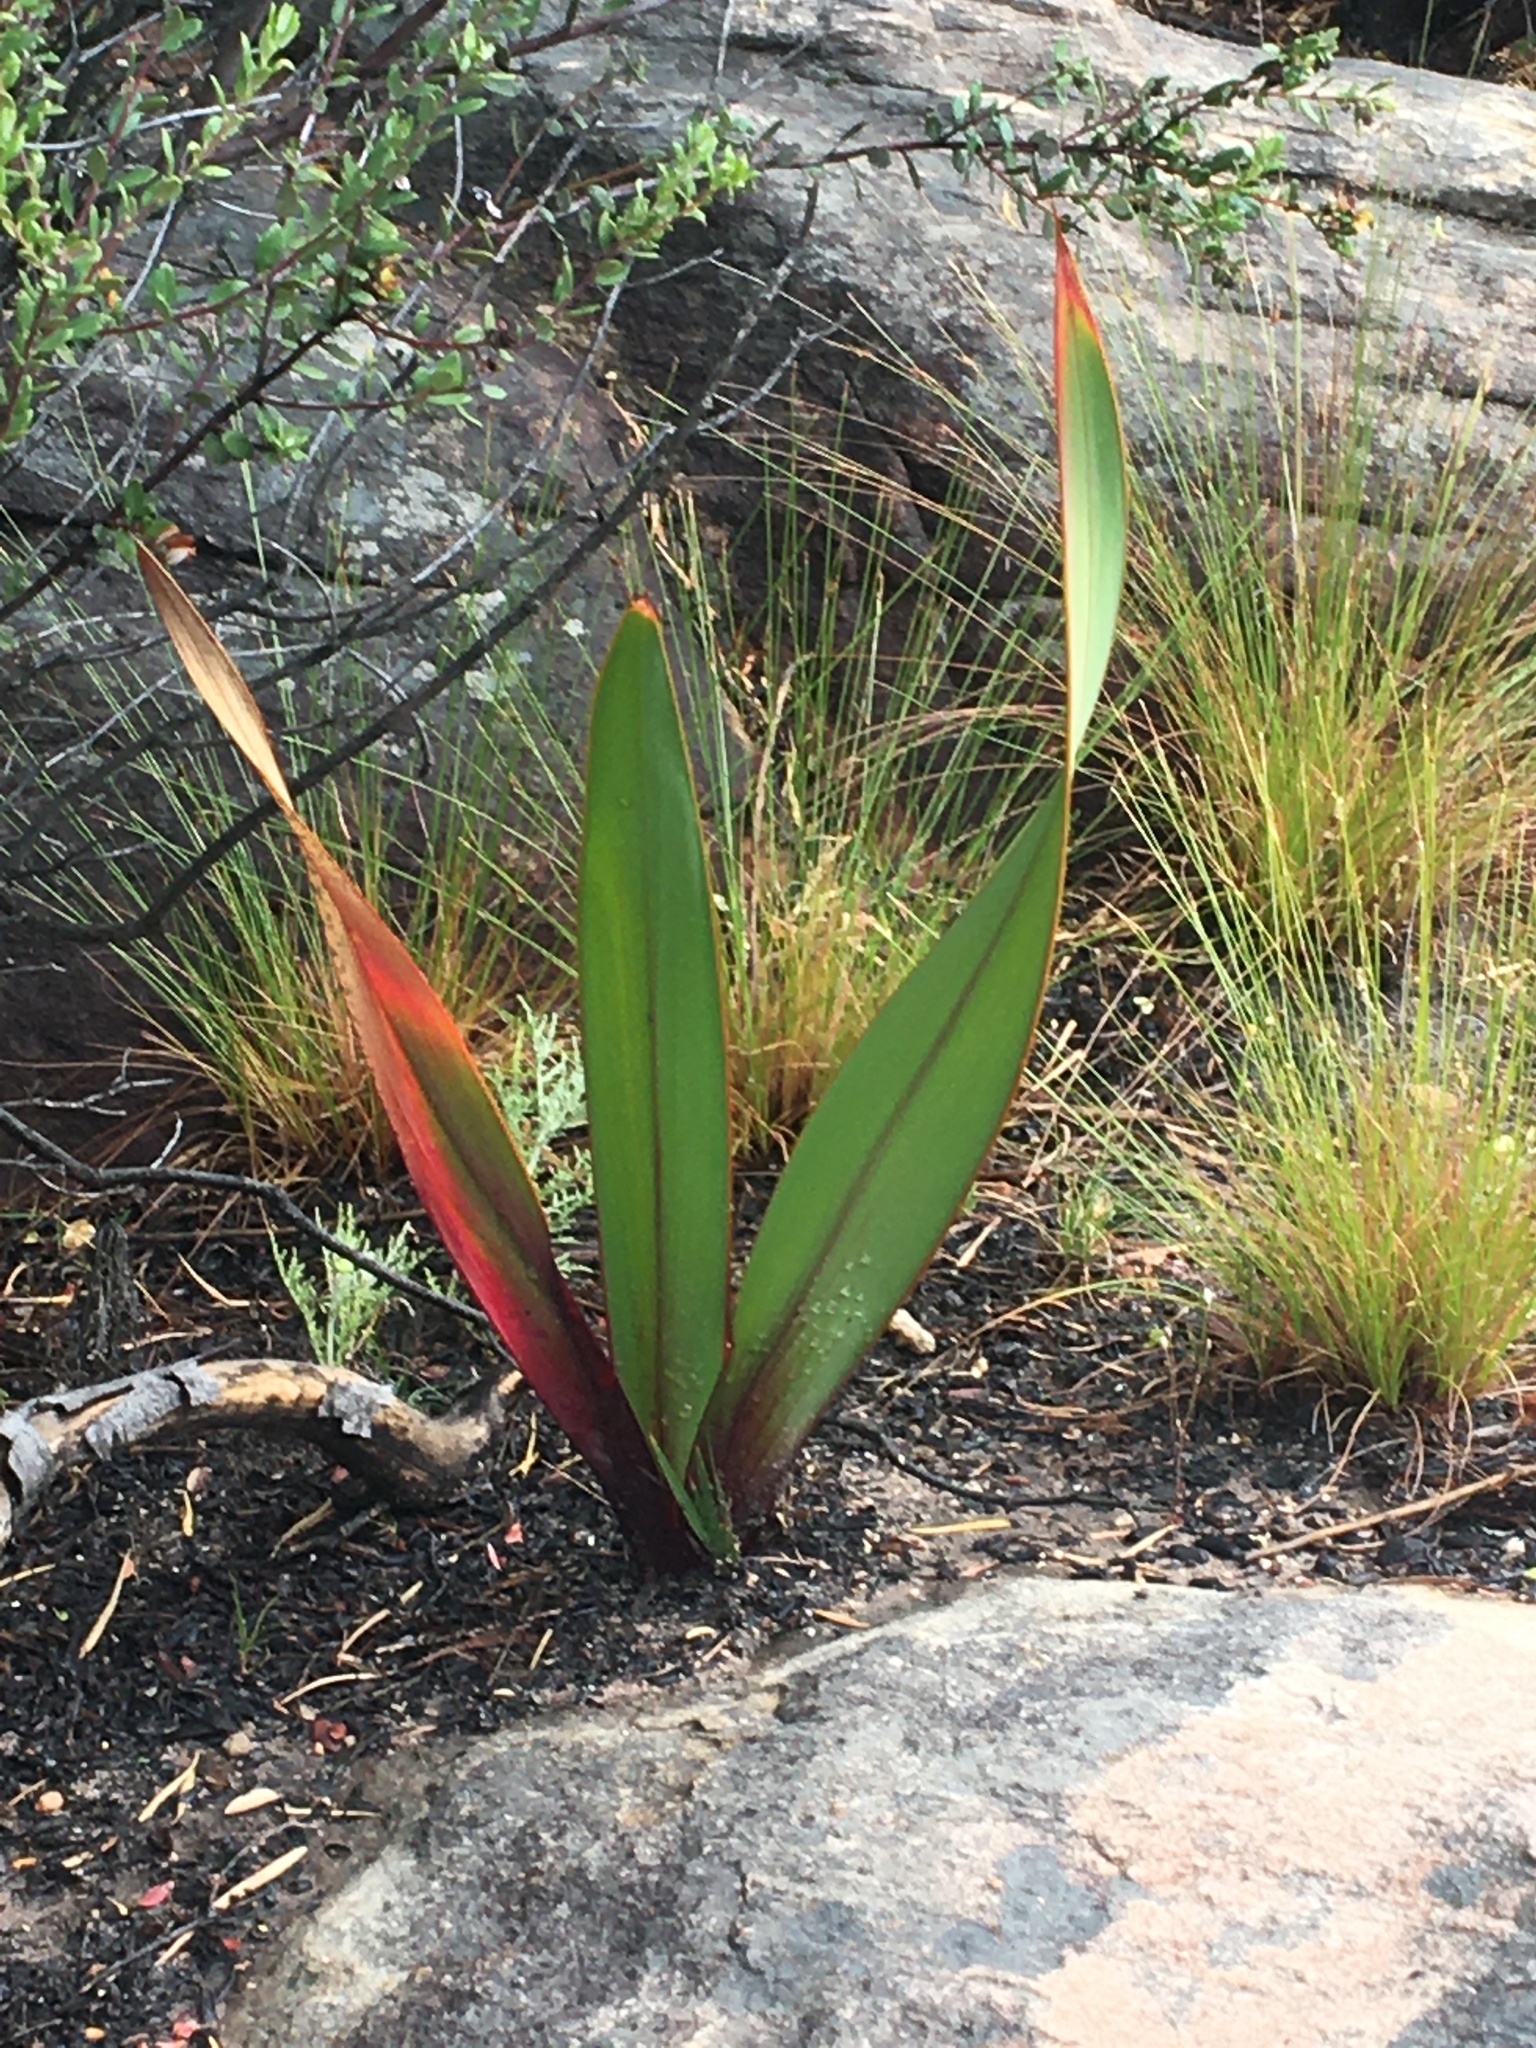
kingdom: Plantae
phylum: Tracheophyta
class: Liliopsida
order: Asparagales
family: Iridaceae
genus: Watsonia
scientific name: Watsonia vanderspuyae
